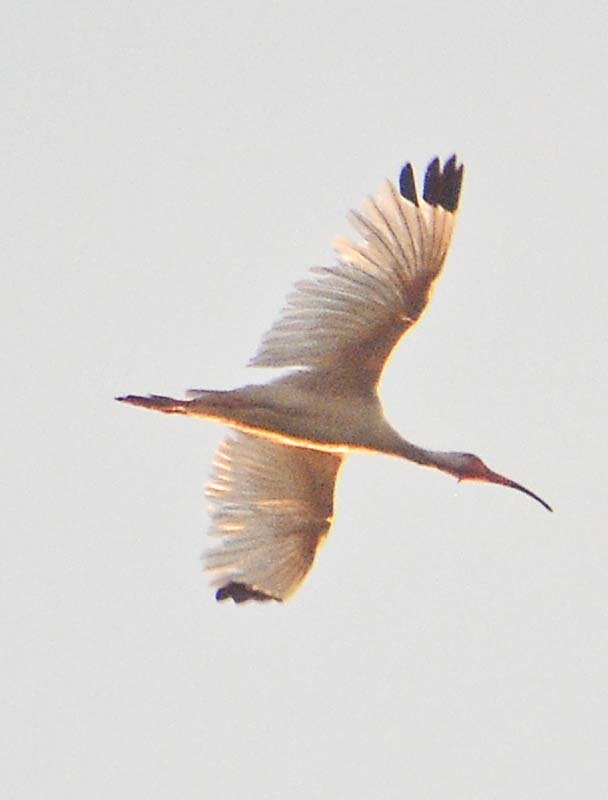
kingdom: Animalia
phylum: Chordata
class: Aves
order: Pelecaniformes
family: Threskiornithidae
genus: Eudocimus
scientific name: Eudocimus albus
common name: White ibis
